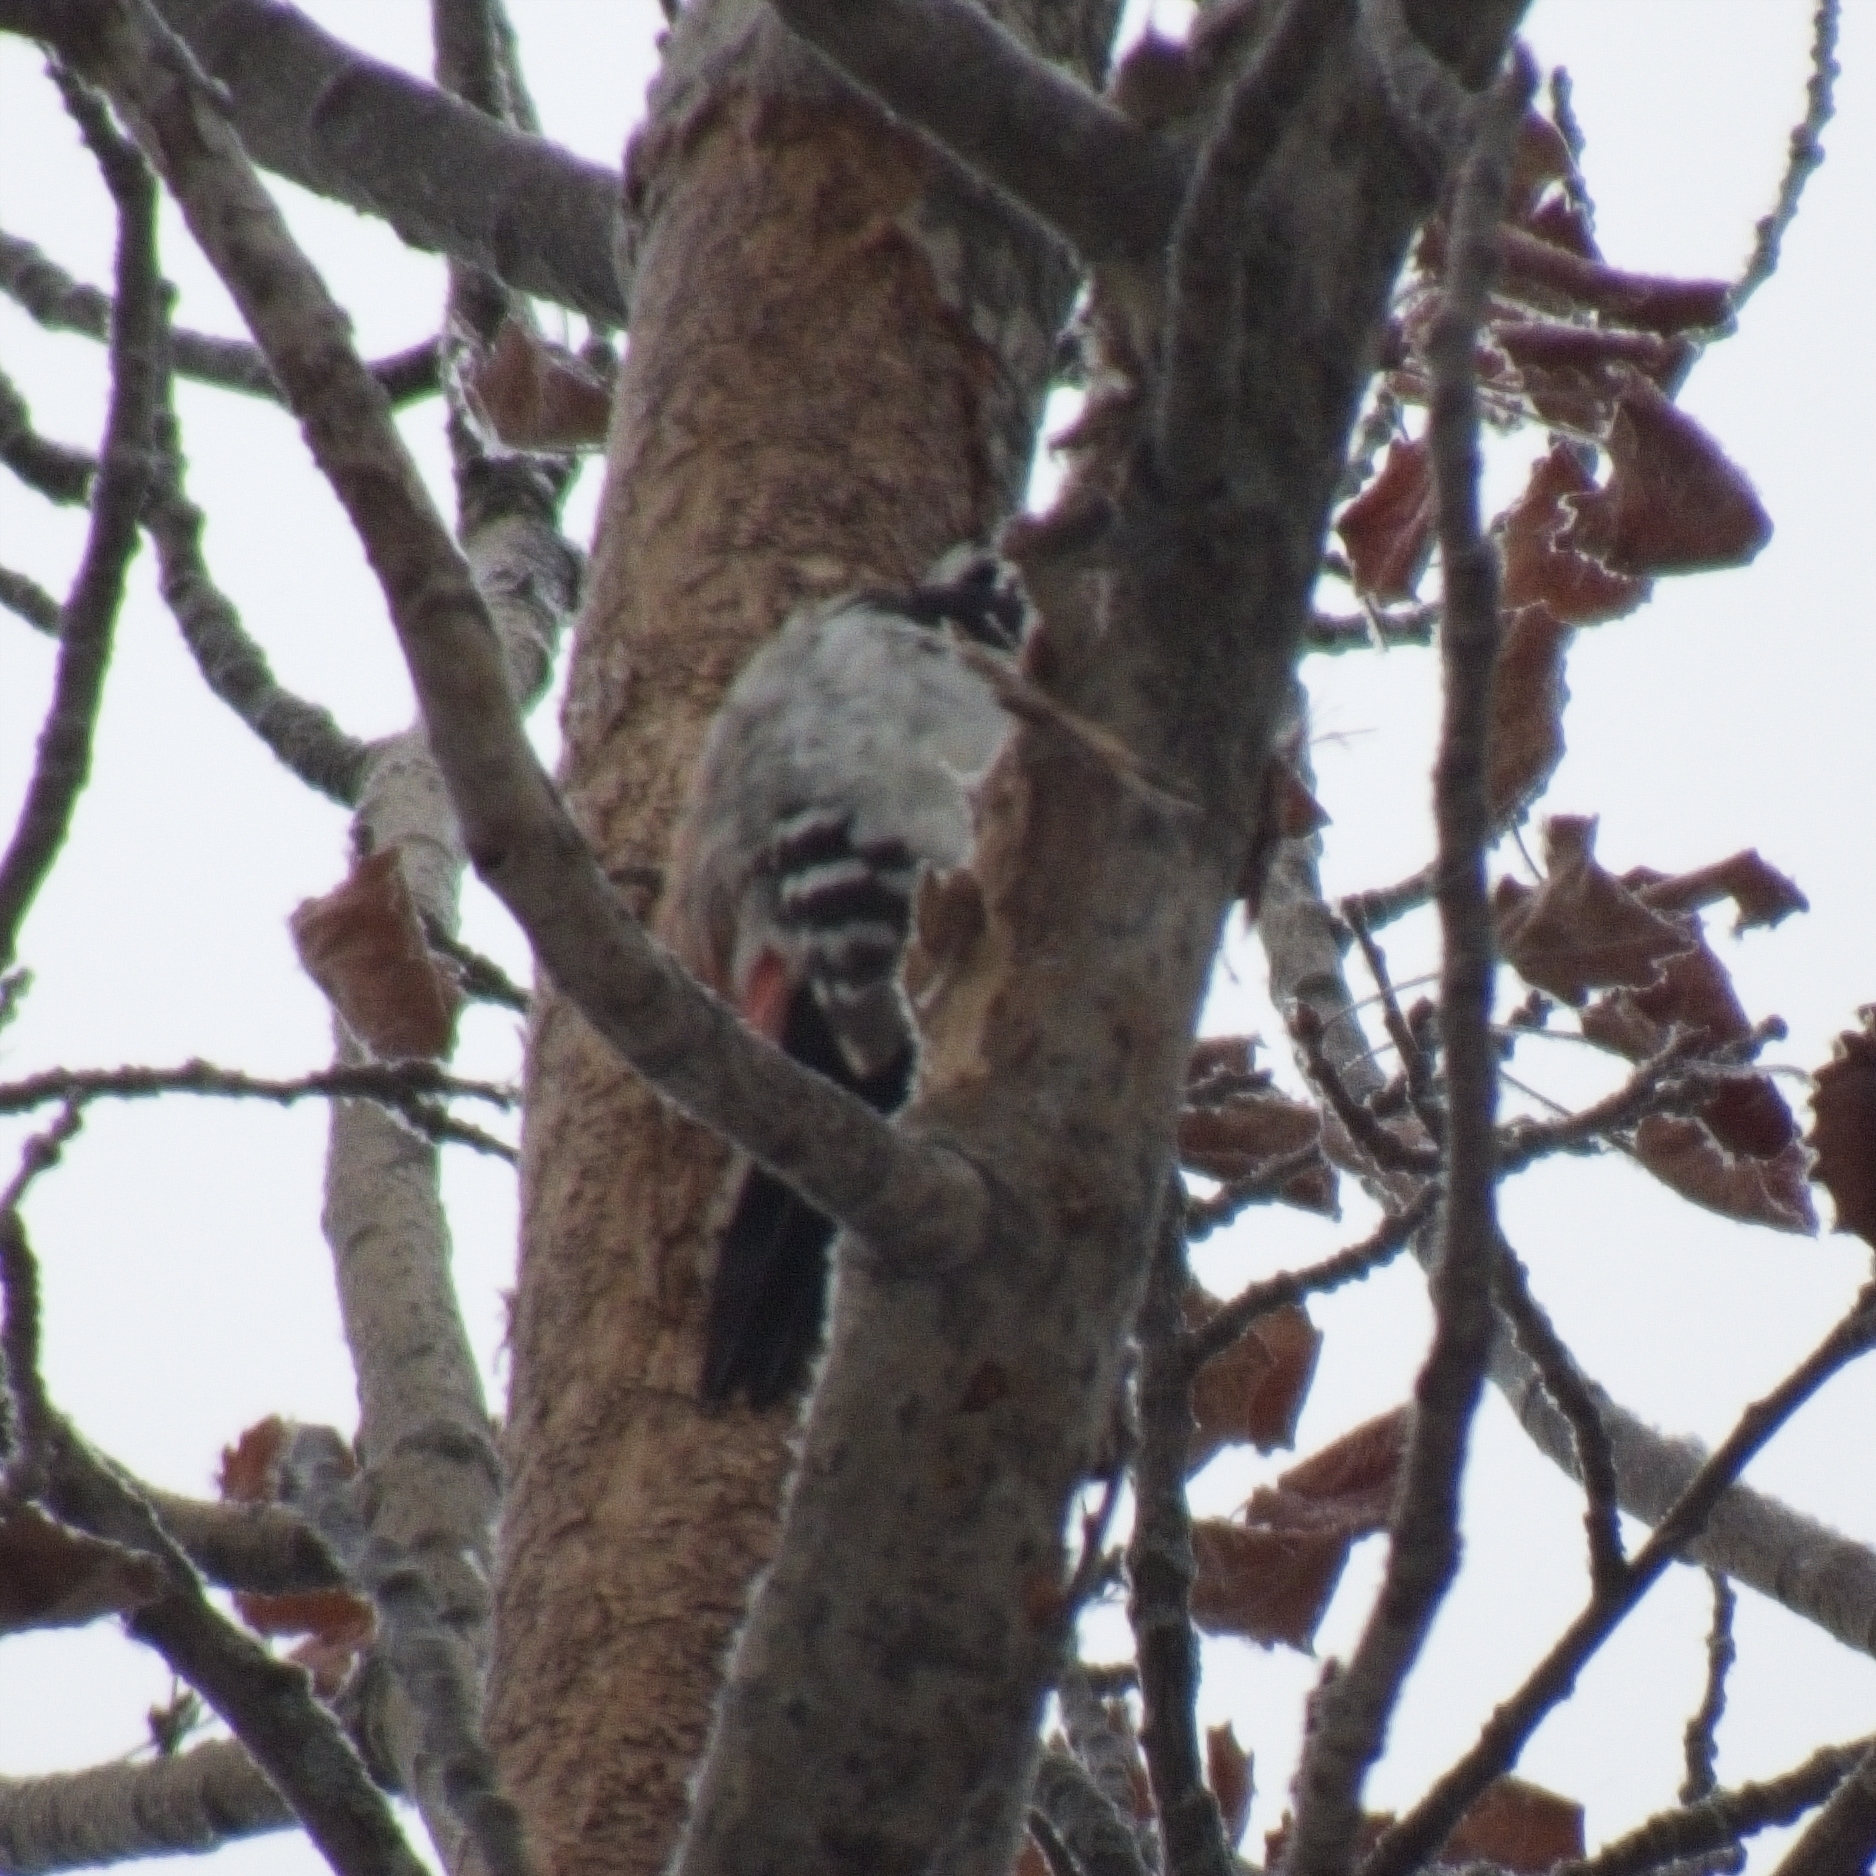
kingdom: Animalia
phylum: Chordata
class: Aves
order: Piciformes
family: Picidae
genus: Dendrocopos
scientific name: Dendrocopos leucotos
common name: White-backed woodpecker
